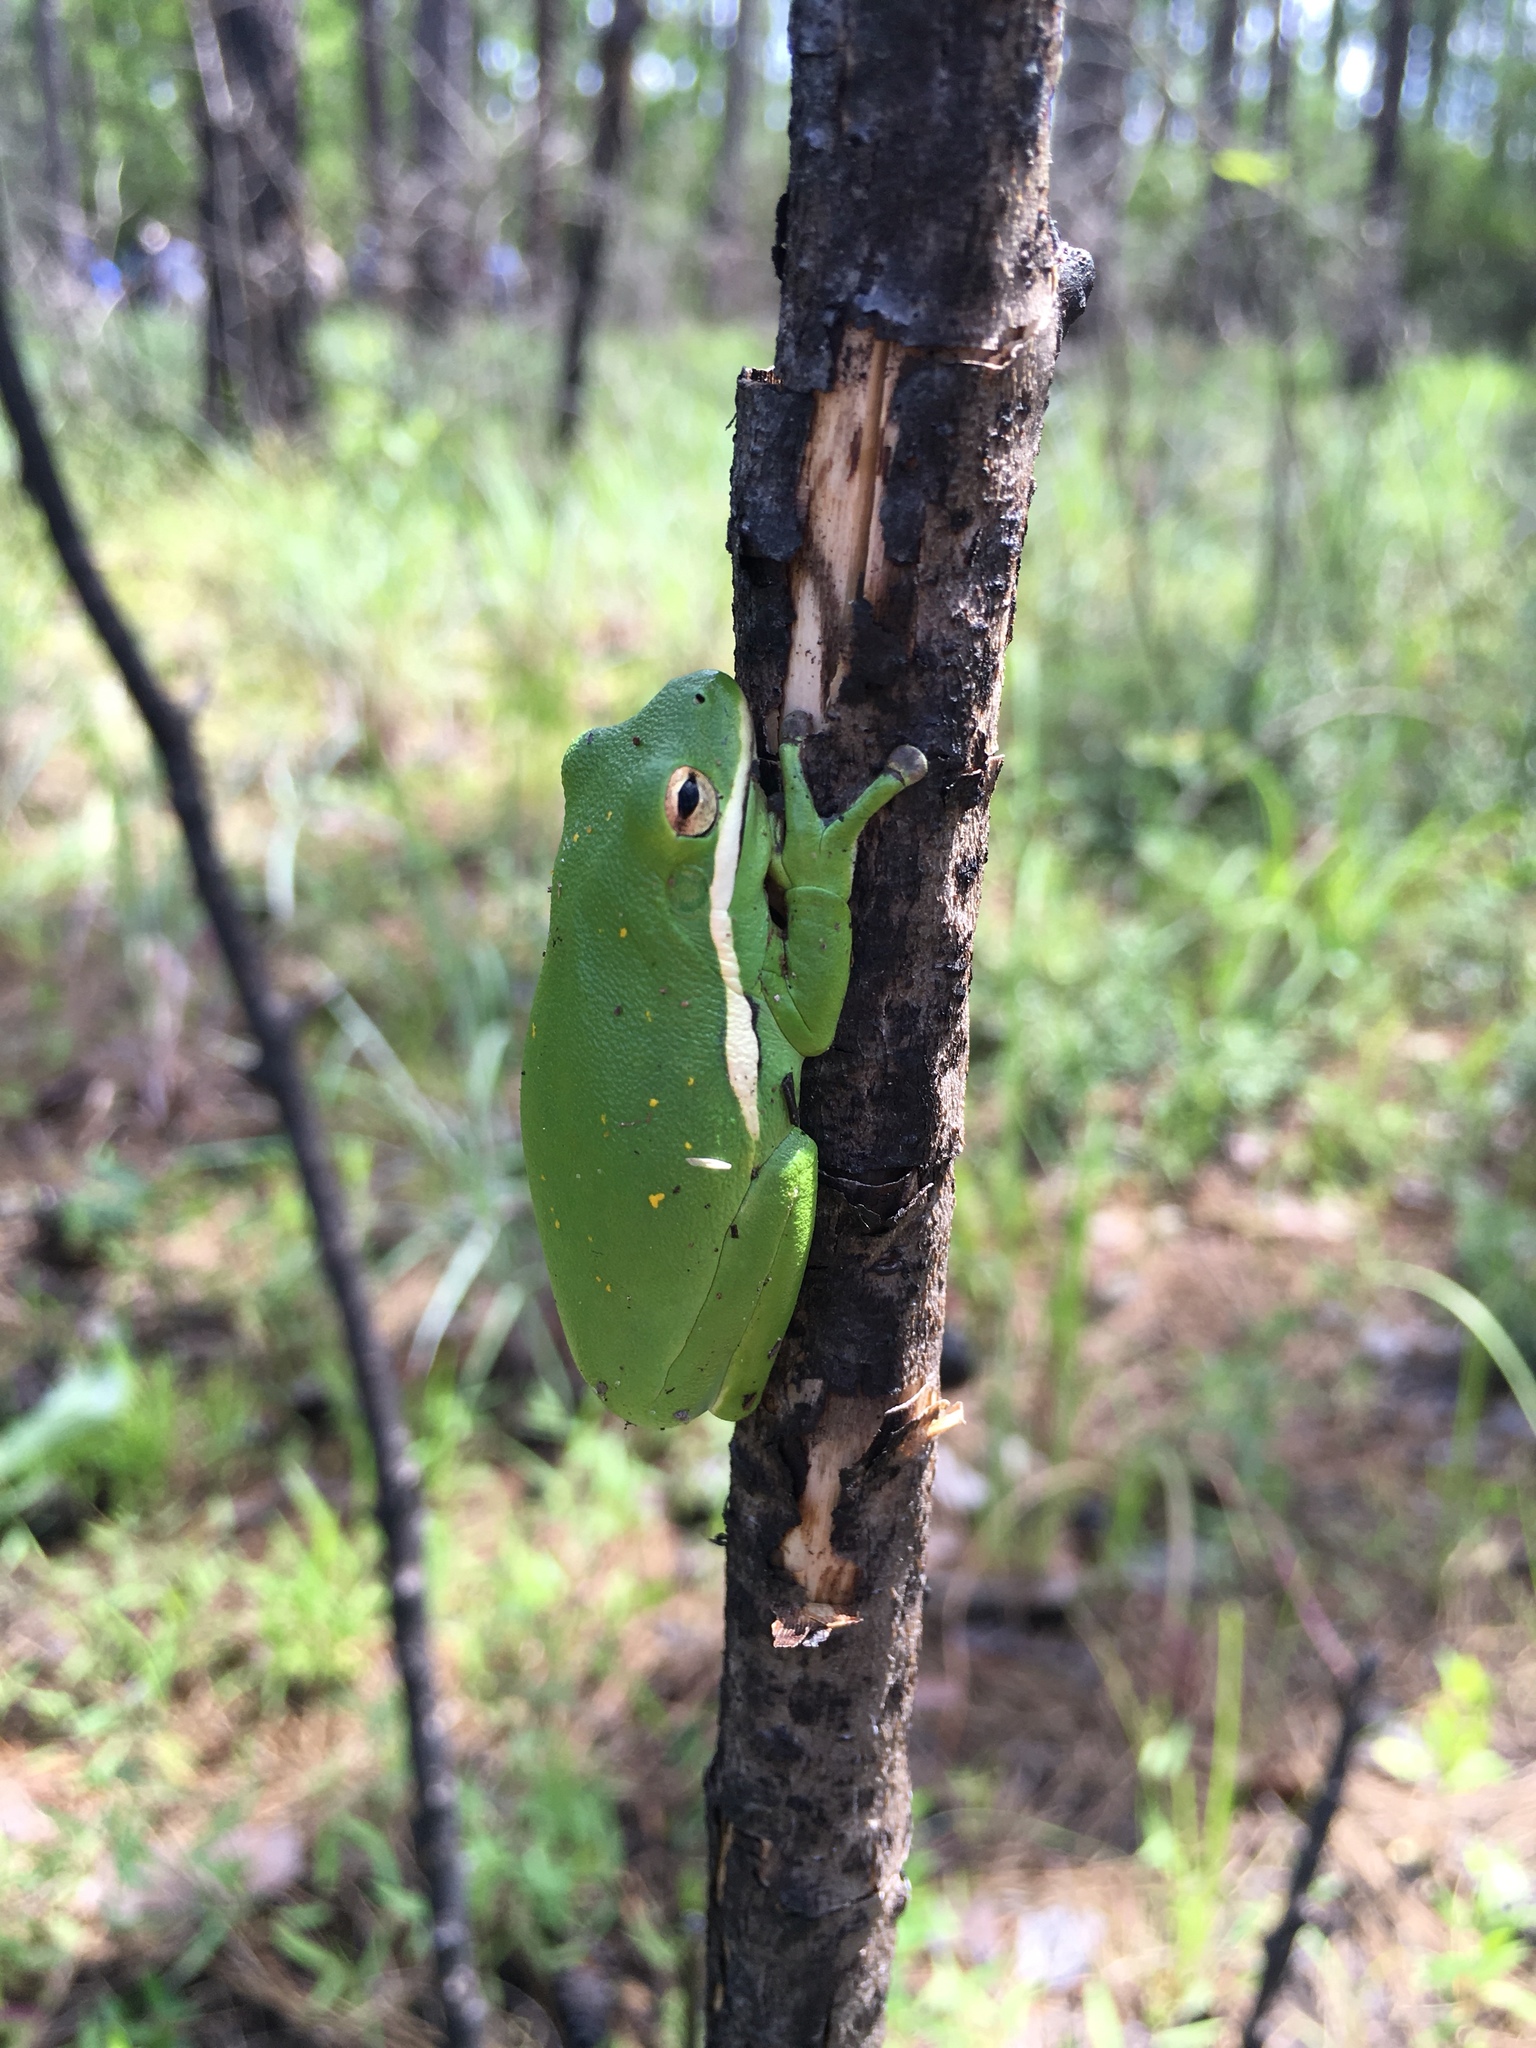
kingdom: Animalia
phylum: Chordata
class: Amphibia
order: Anura
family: Hylidae
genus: Dryophytes
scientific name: Dryophytes cinereus
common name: Green treefrog
